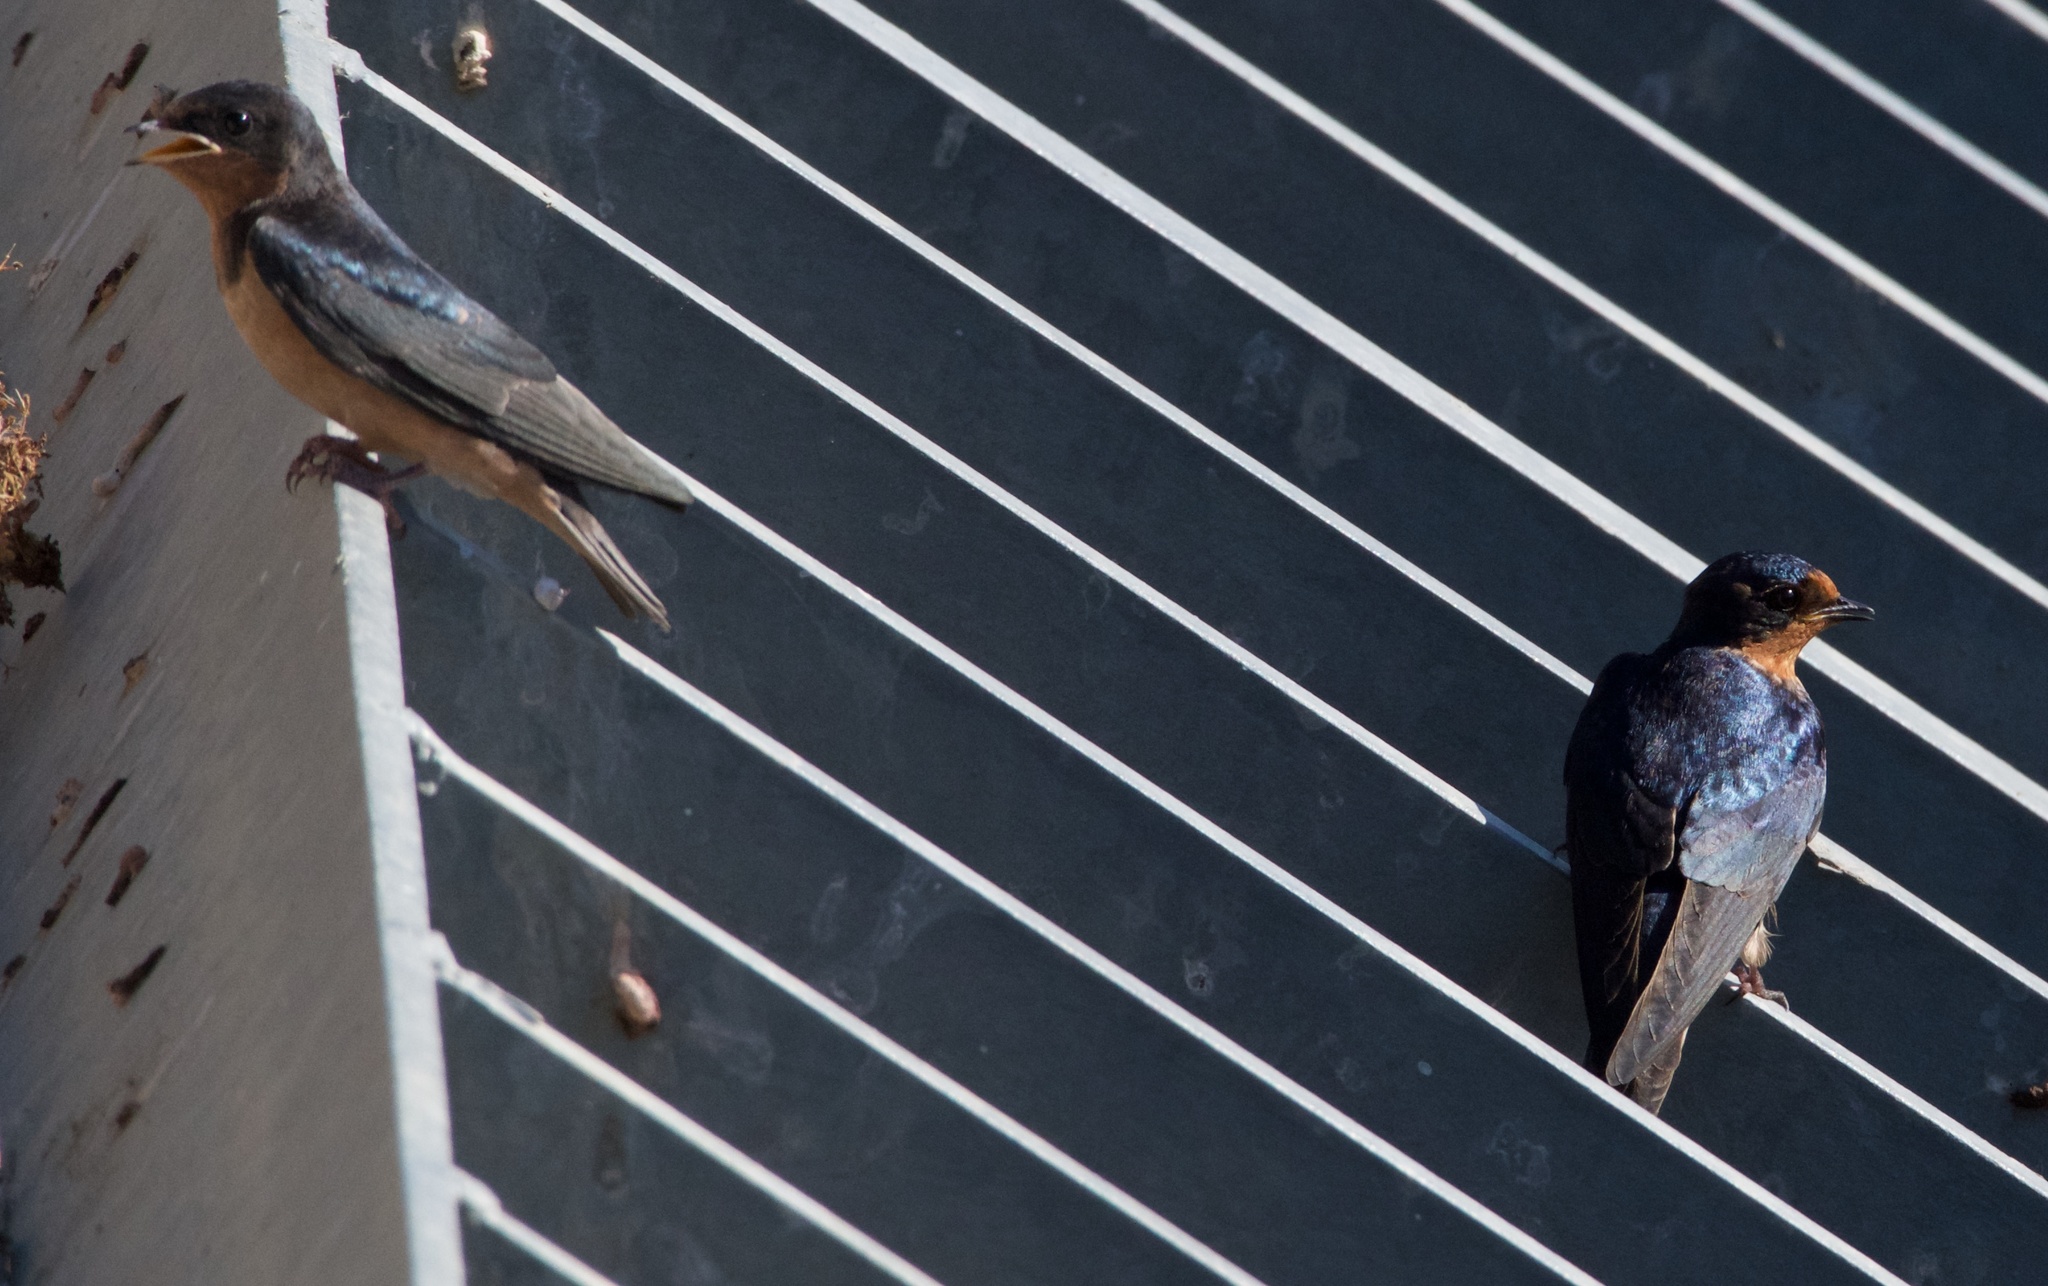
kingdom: Animalia
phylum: Chordata
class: Aves
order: Passeriformes
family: Hirundinidae
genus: Hirundo
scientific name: Hirundo rustica
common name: Barn swallow
